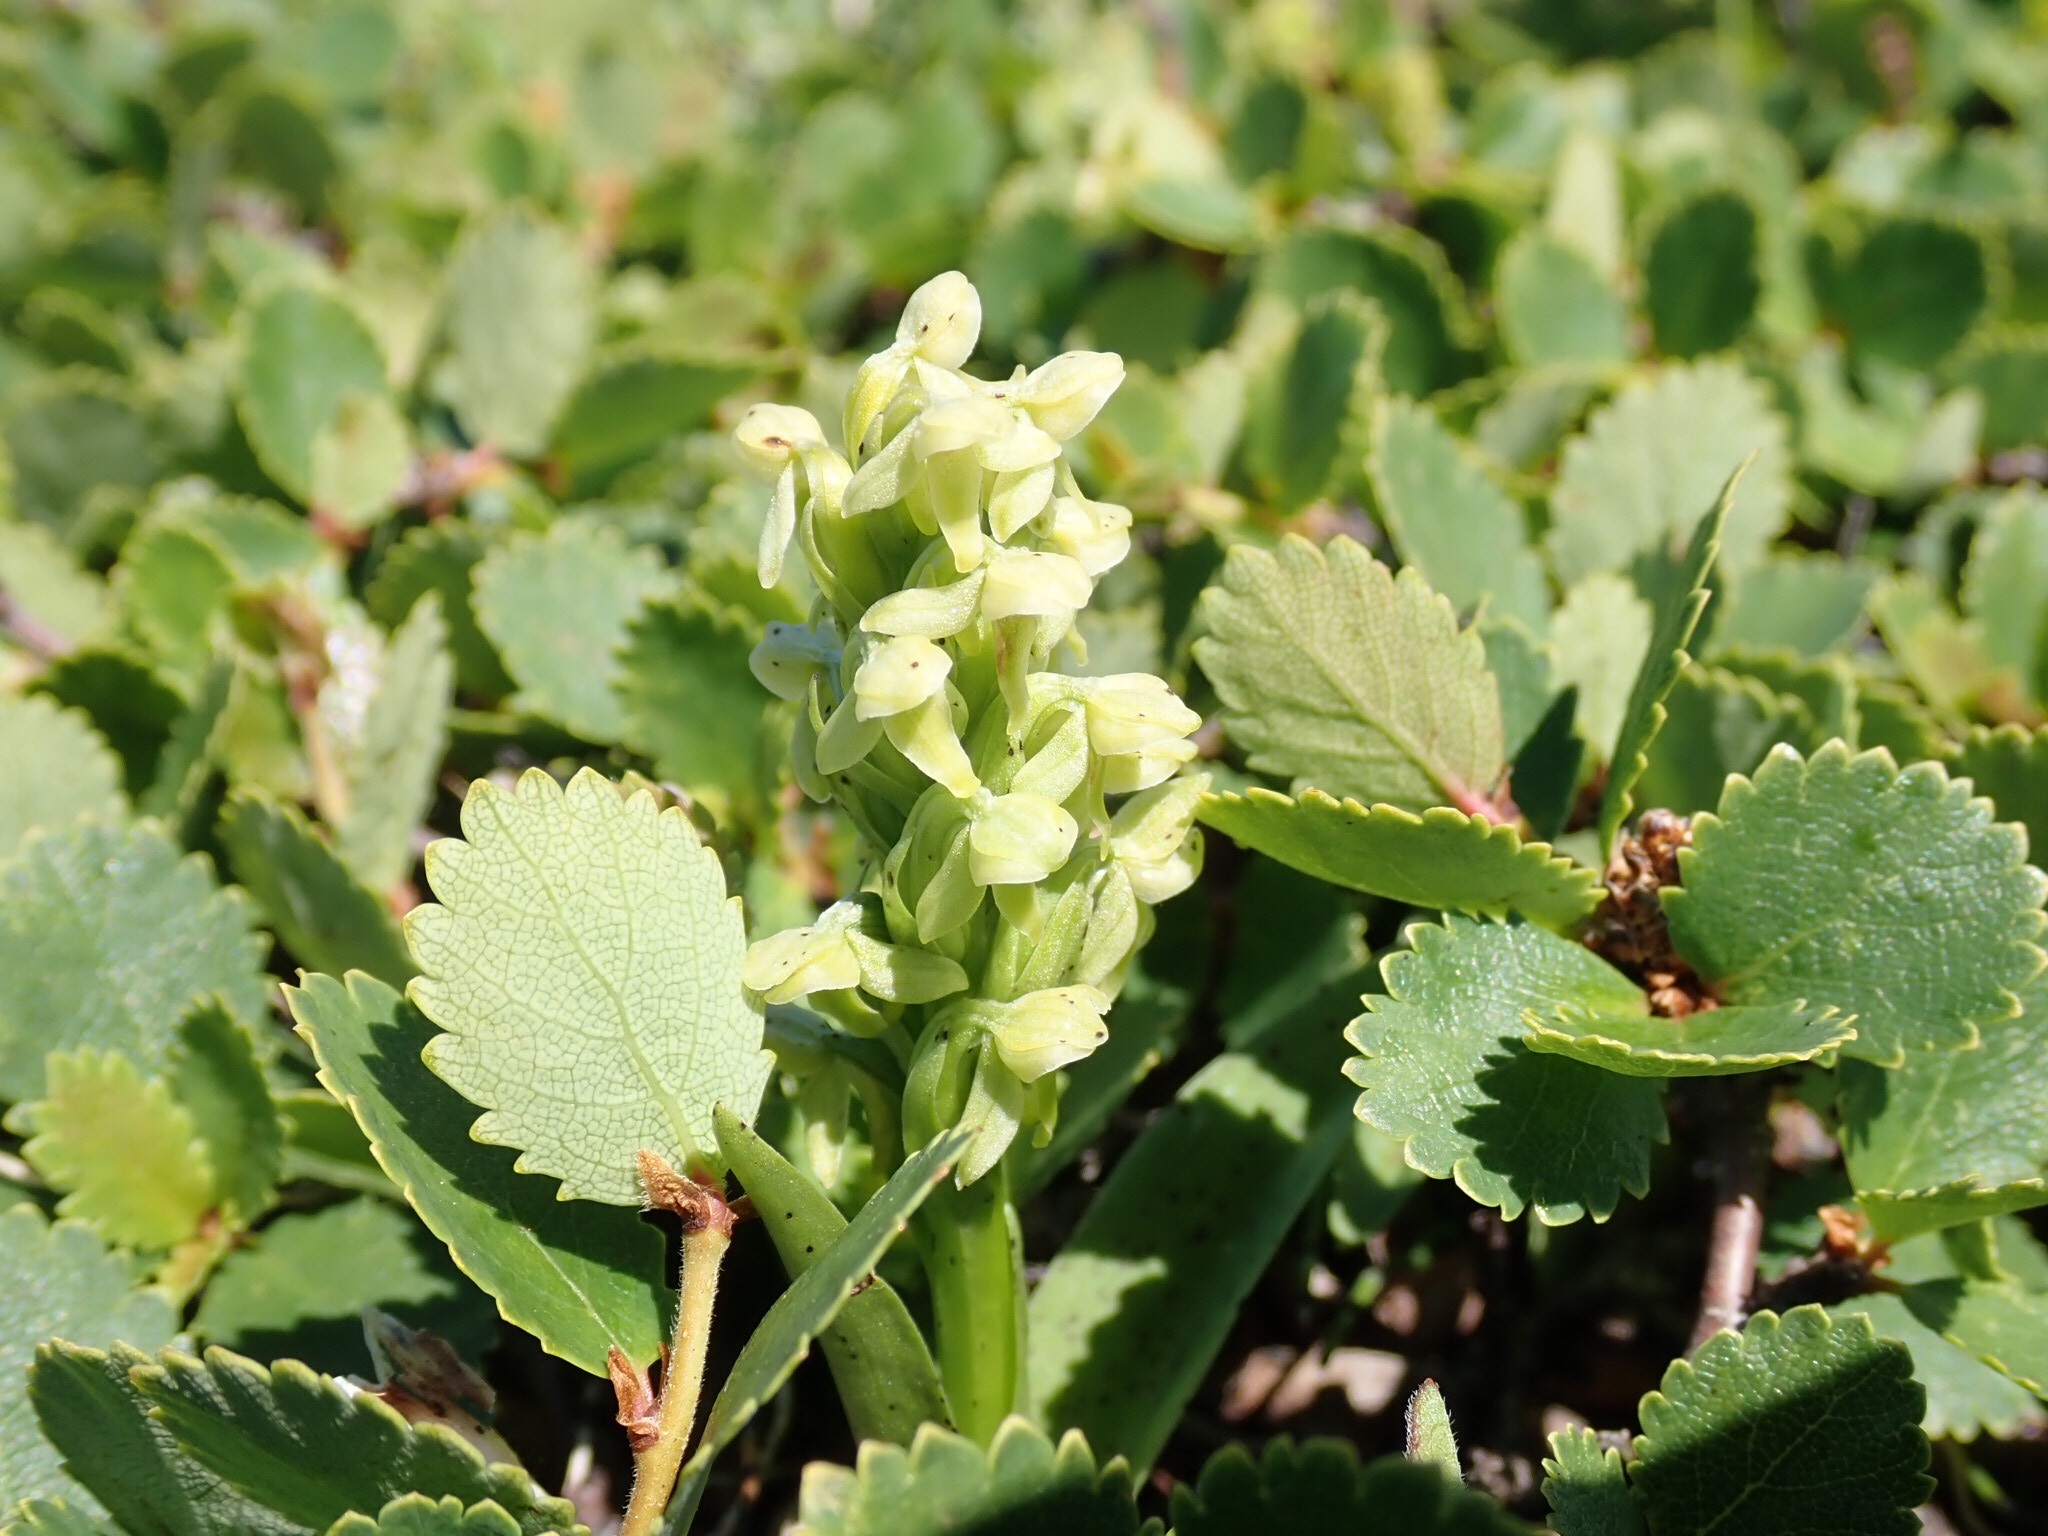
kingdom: Plantae
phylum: Tracheophyta
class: Liliopsida
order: Asparagales
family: Orchidaceae
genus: Platanthera
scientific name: Platanthera huronensis
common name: Fragrant green orchid
